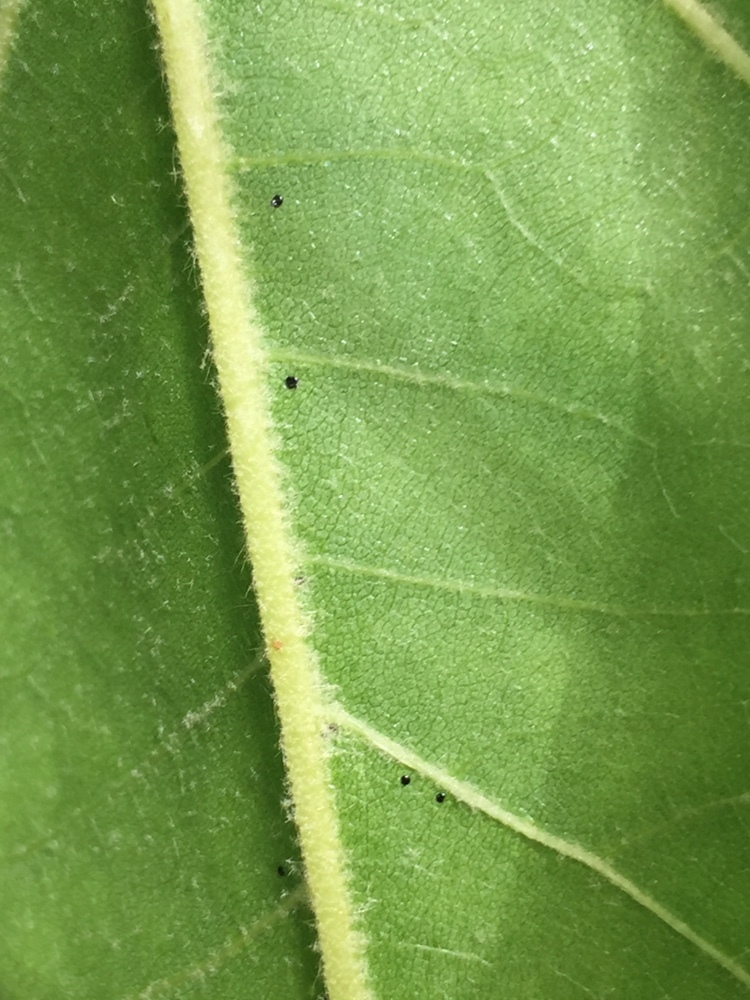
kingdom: Animalia
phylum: Arthropoda
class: Insecta
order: Hemiptera
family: Tingidae
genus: Corythucha
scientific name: Corythucha ciliata
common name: Sycamore lace bug
